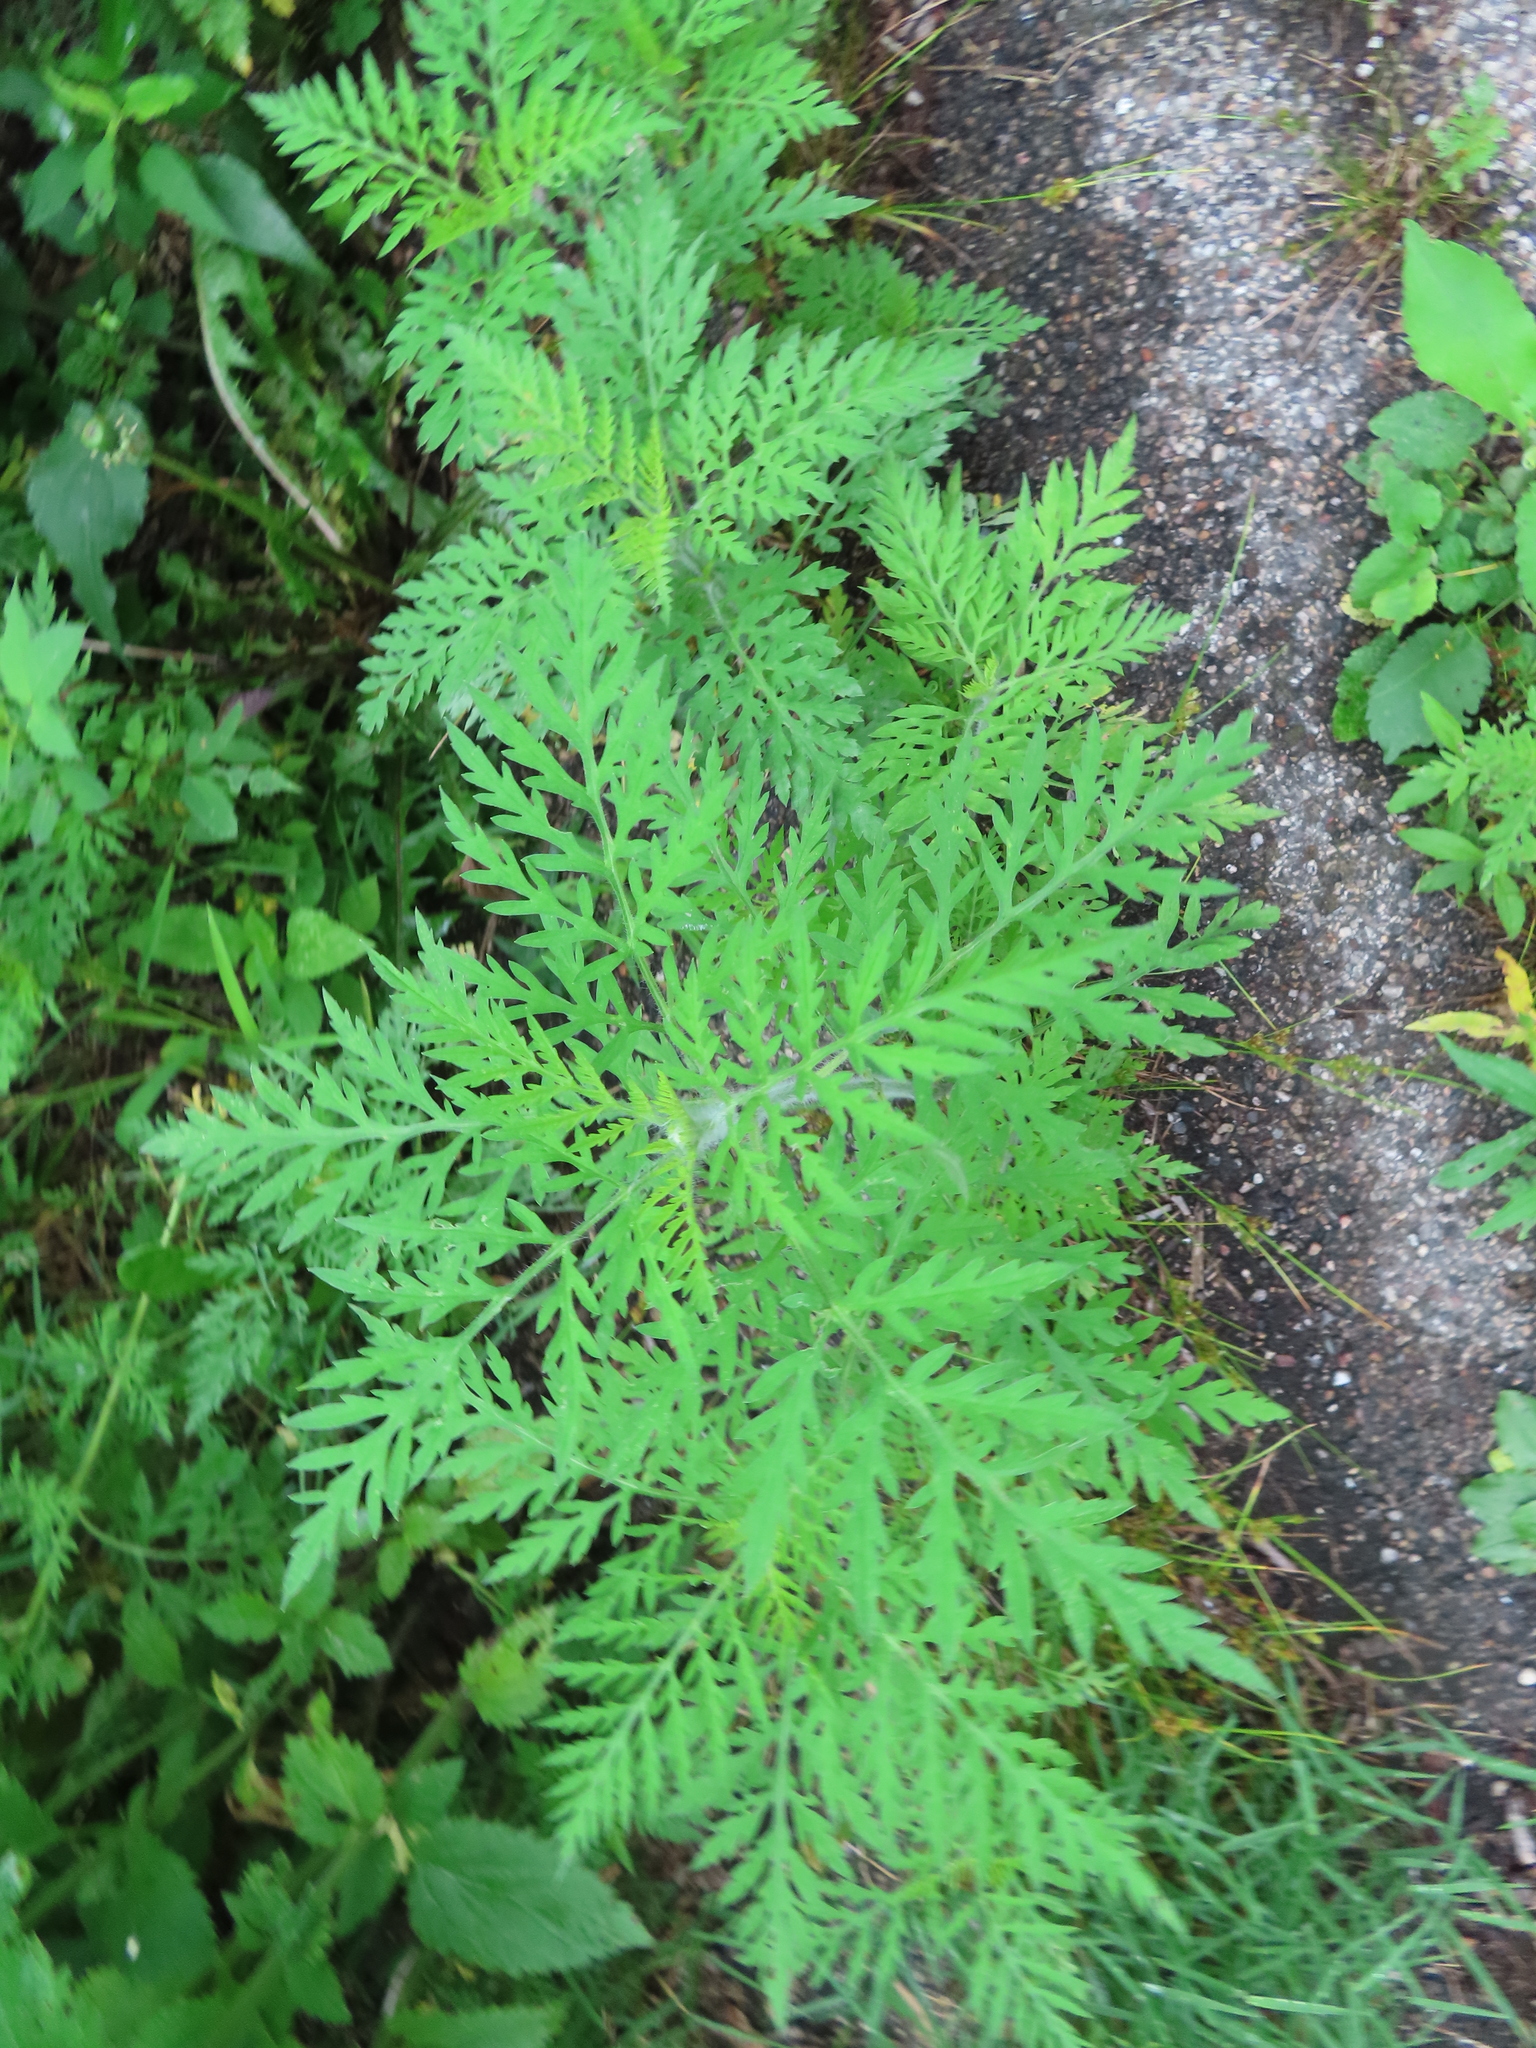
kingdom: Plantae
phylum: Tracheophyta
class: Magnoliopsida
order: Asterales
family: Asteraceae
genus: Ambrosia
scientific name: Ambrosia artemisiifolia
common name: Annual ragweed
